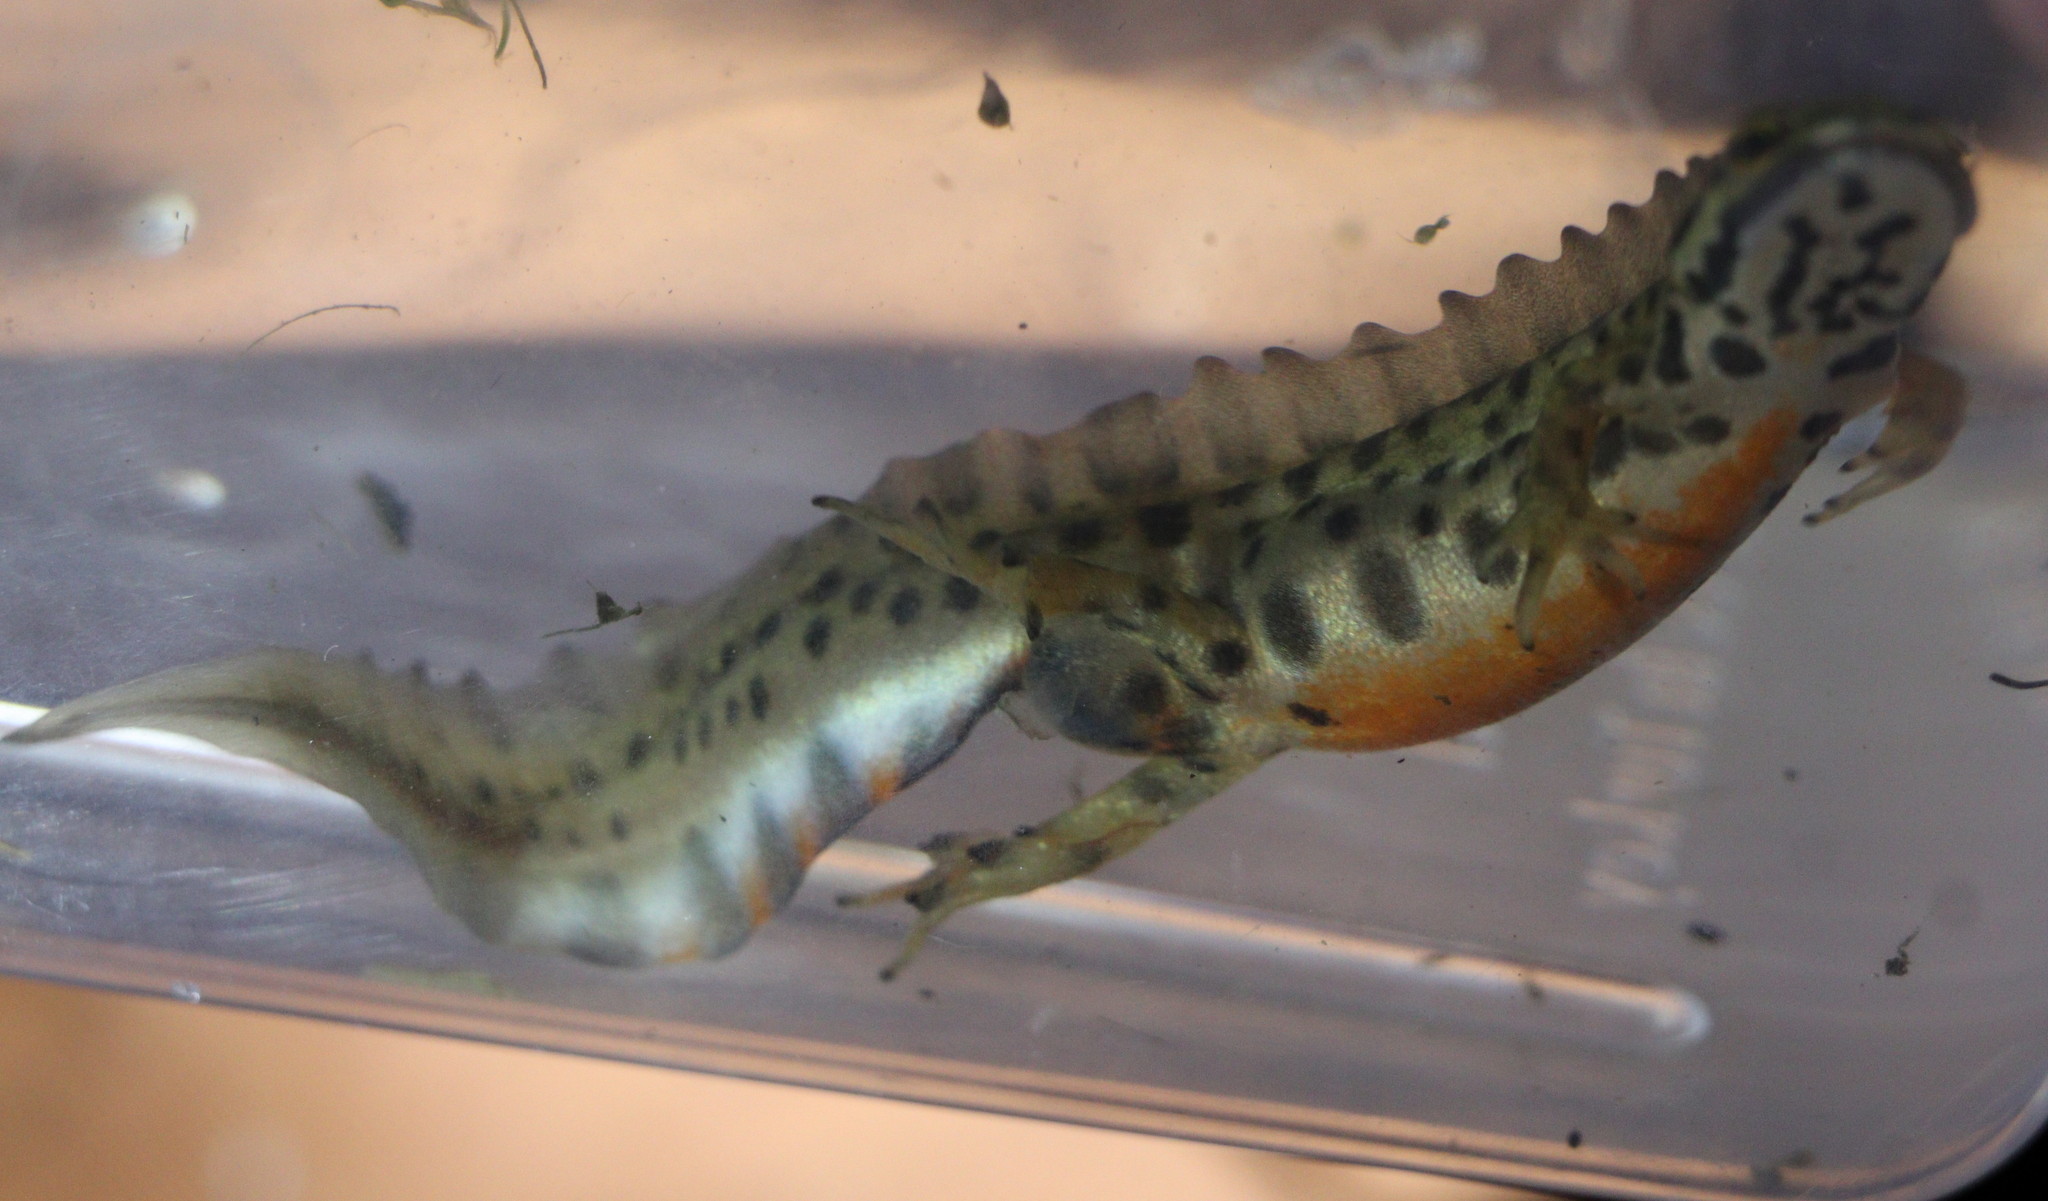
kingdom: Animalia
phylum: Chordata
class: Amphibia
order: Caudata
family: Salamandridae
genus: Lissotriton
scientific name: Lissotriton vulgaris
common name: Smooth newt
